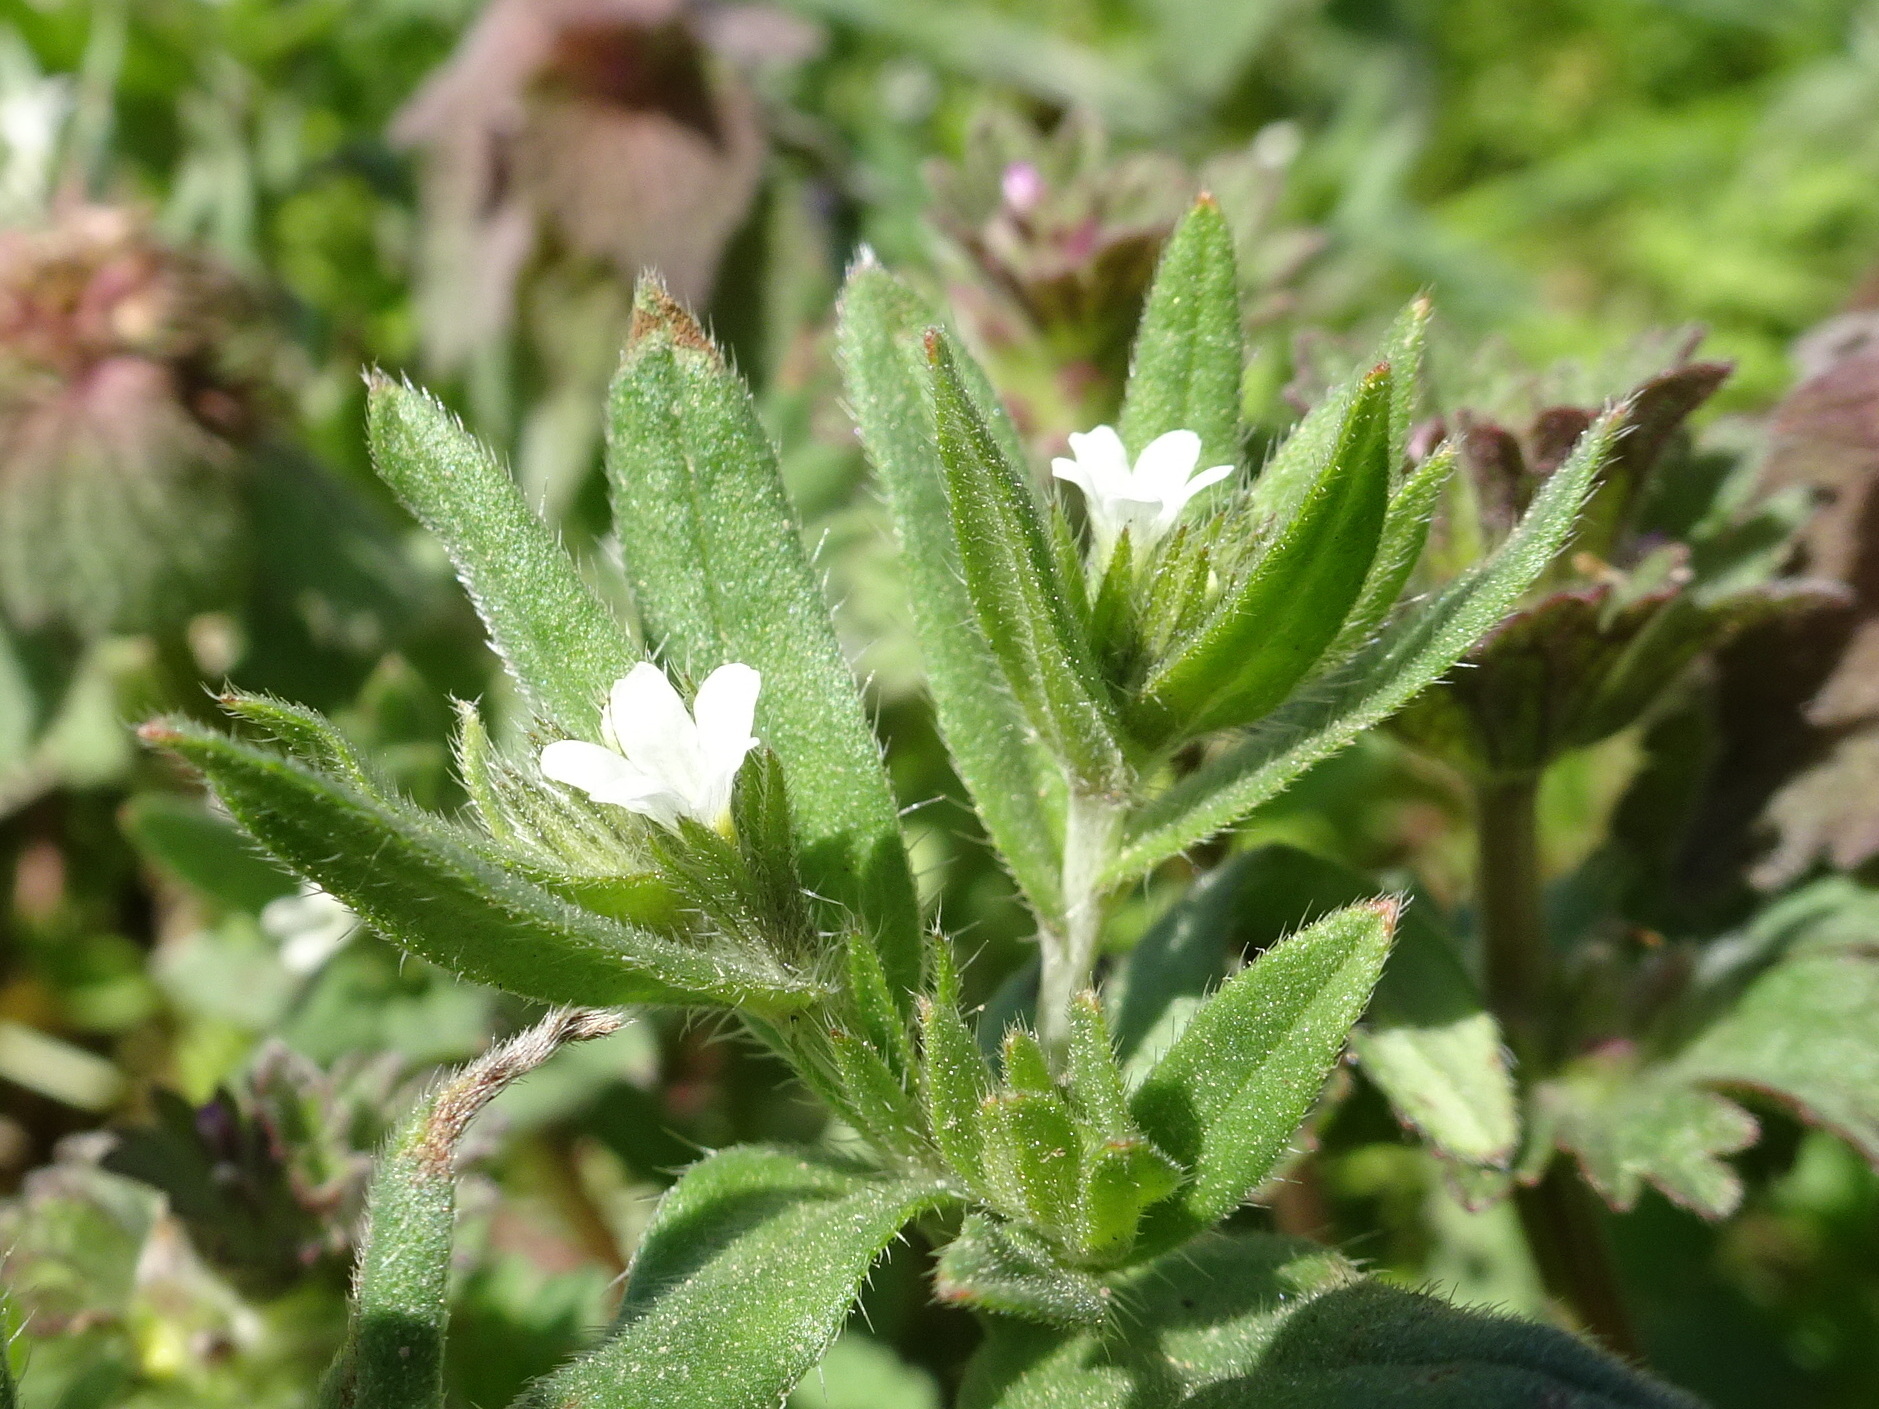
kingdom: Plantae
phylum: Tracheophyta
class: Magnoliopsida
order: Boraginales
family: Boraginaceae
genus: Buglossoides
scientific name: Buglossoides arvensis
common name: Corn gromwell
